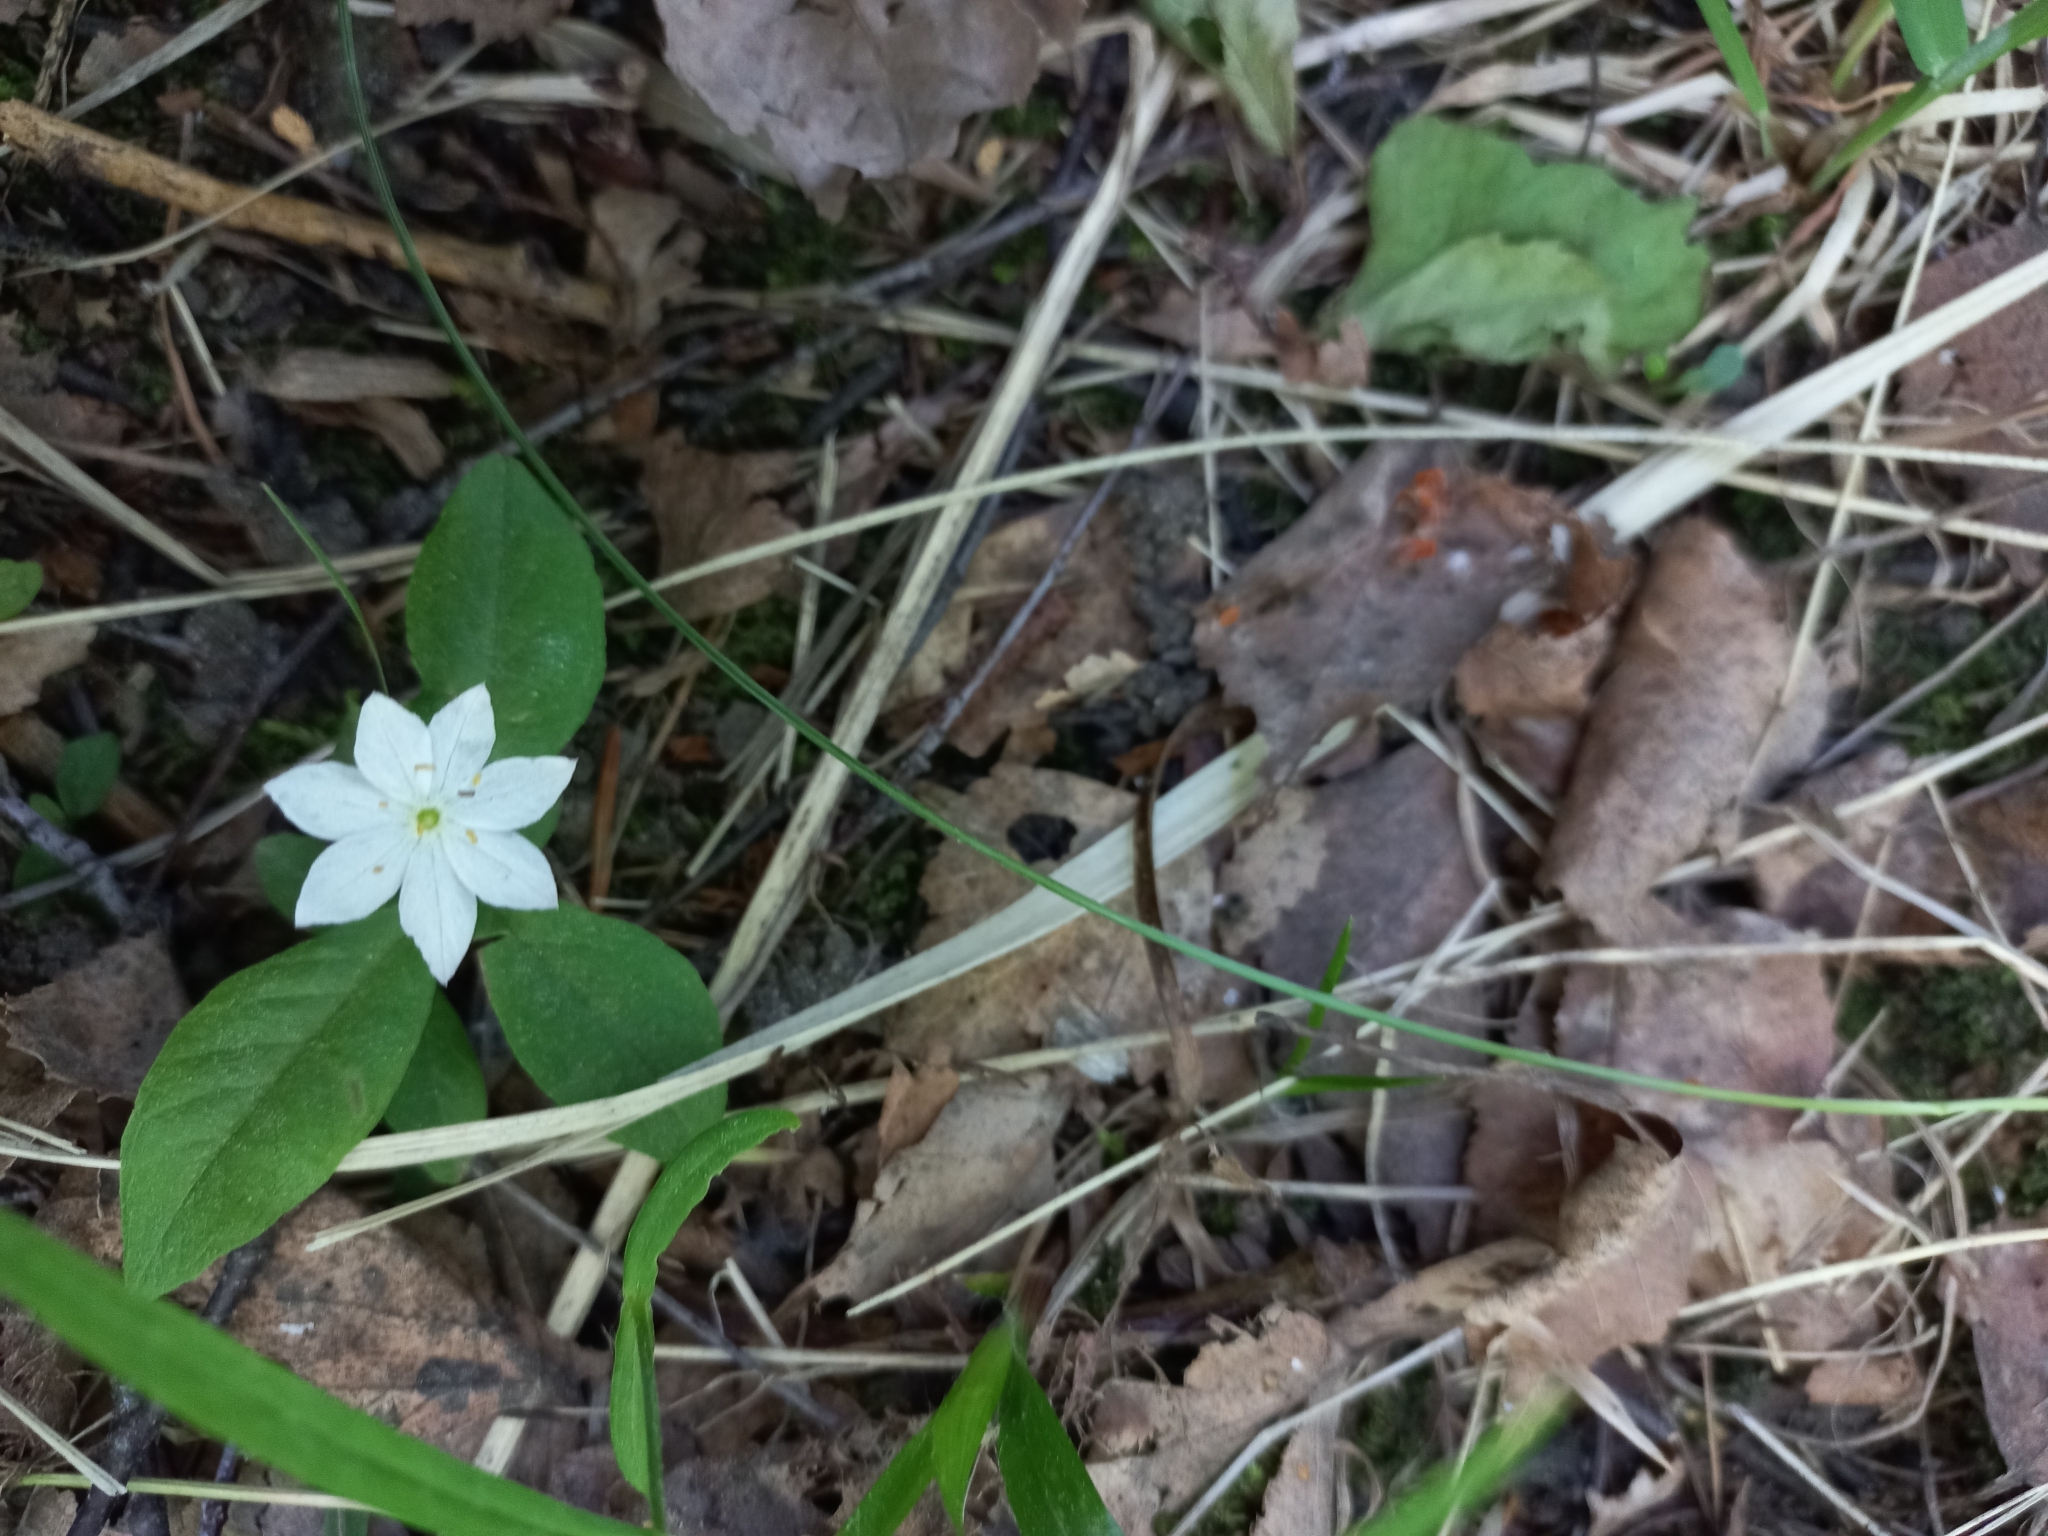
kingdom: Plantae
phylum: Tracheophyta
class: Magnoliopsida
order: Ericales
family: Primulaceae
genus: Lysimachia
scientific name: Lysimachia europaea
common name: Arctic starflower
